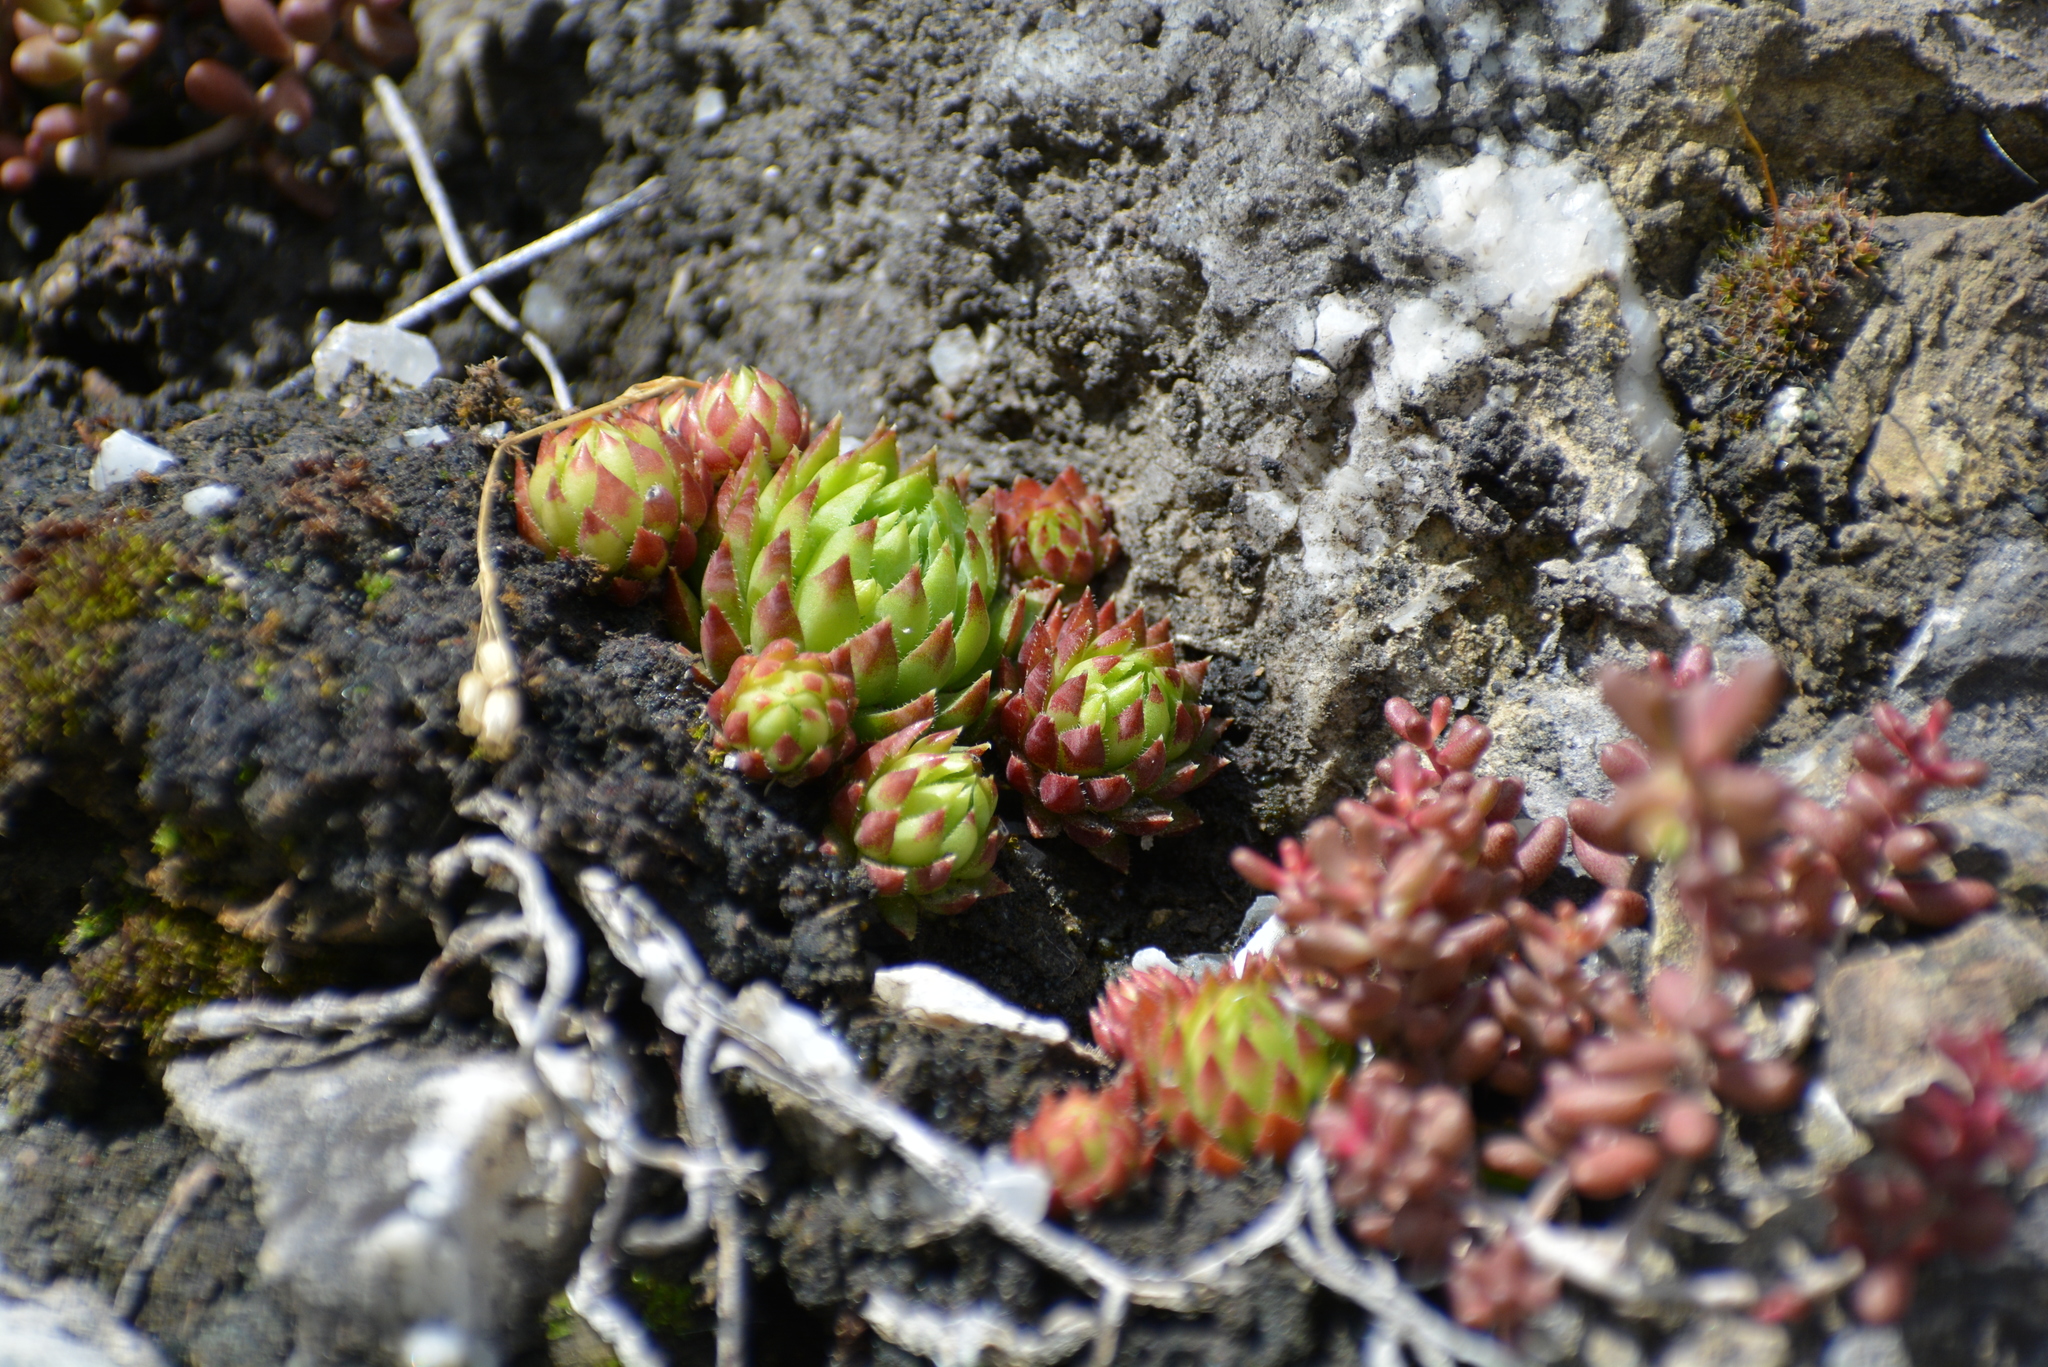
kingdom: Plantae
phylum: Tracheophyta
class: Magnoliopsida
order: Saxifragales
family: Crassulaceae
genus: Sempervivum
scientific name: Sempervivum globiferum
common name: Rolling hen-and-chicks
